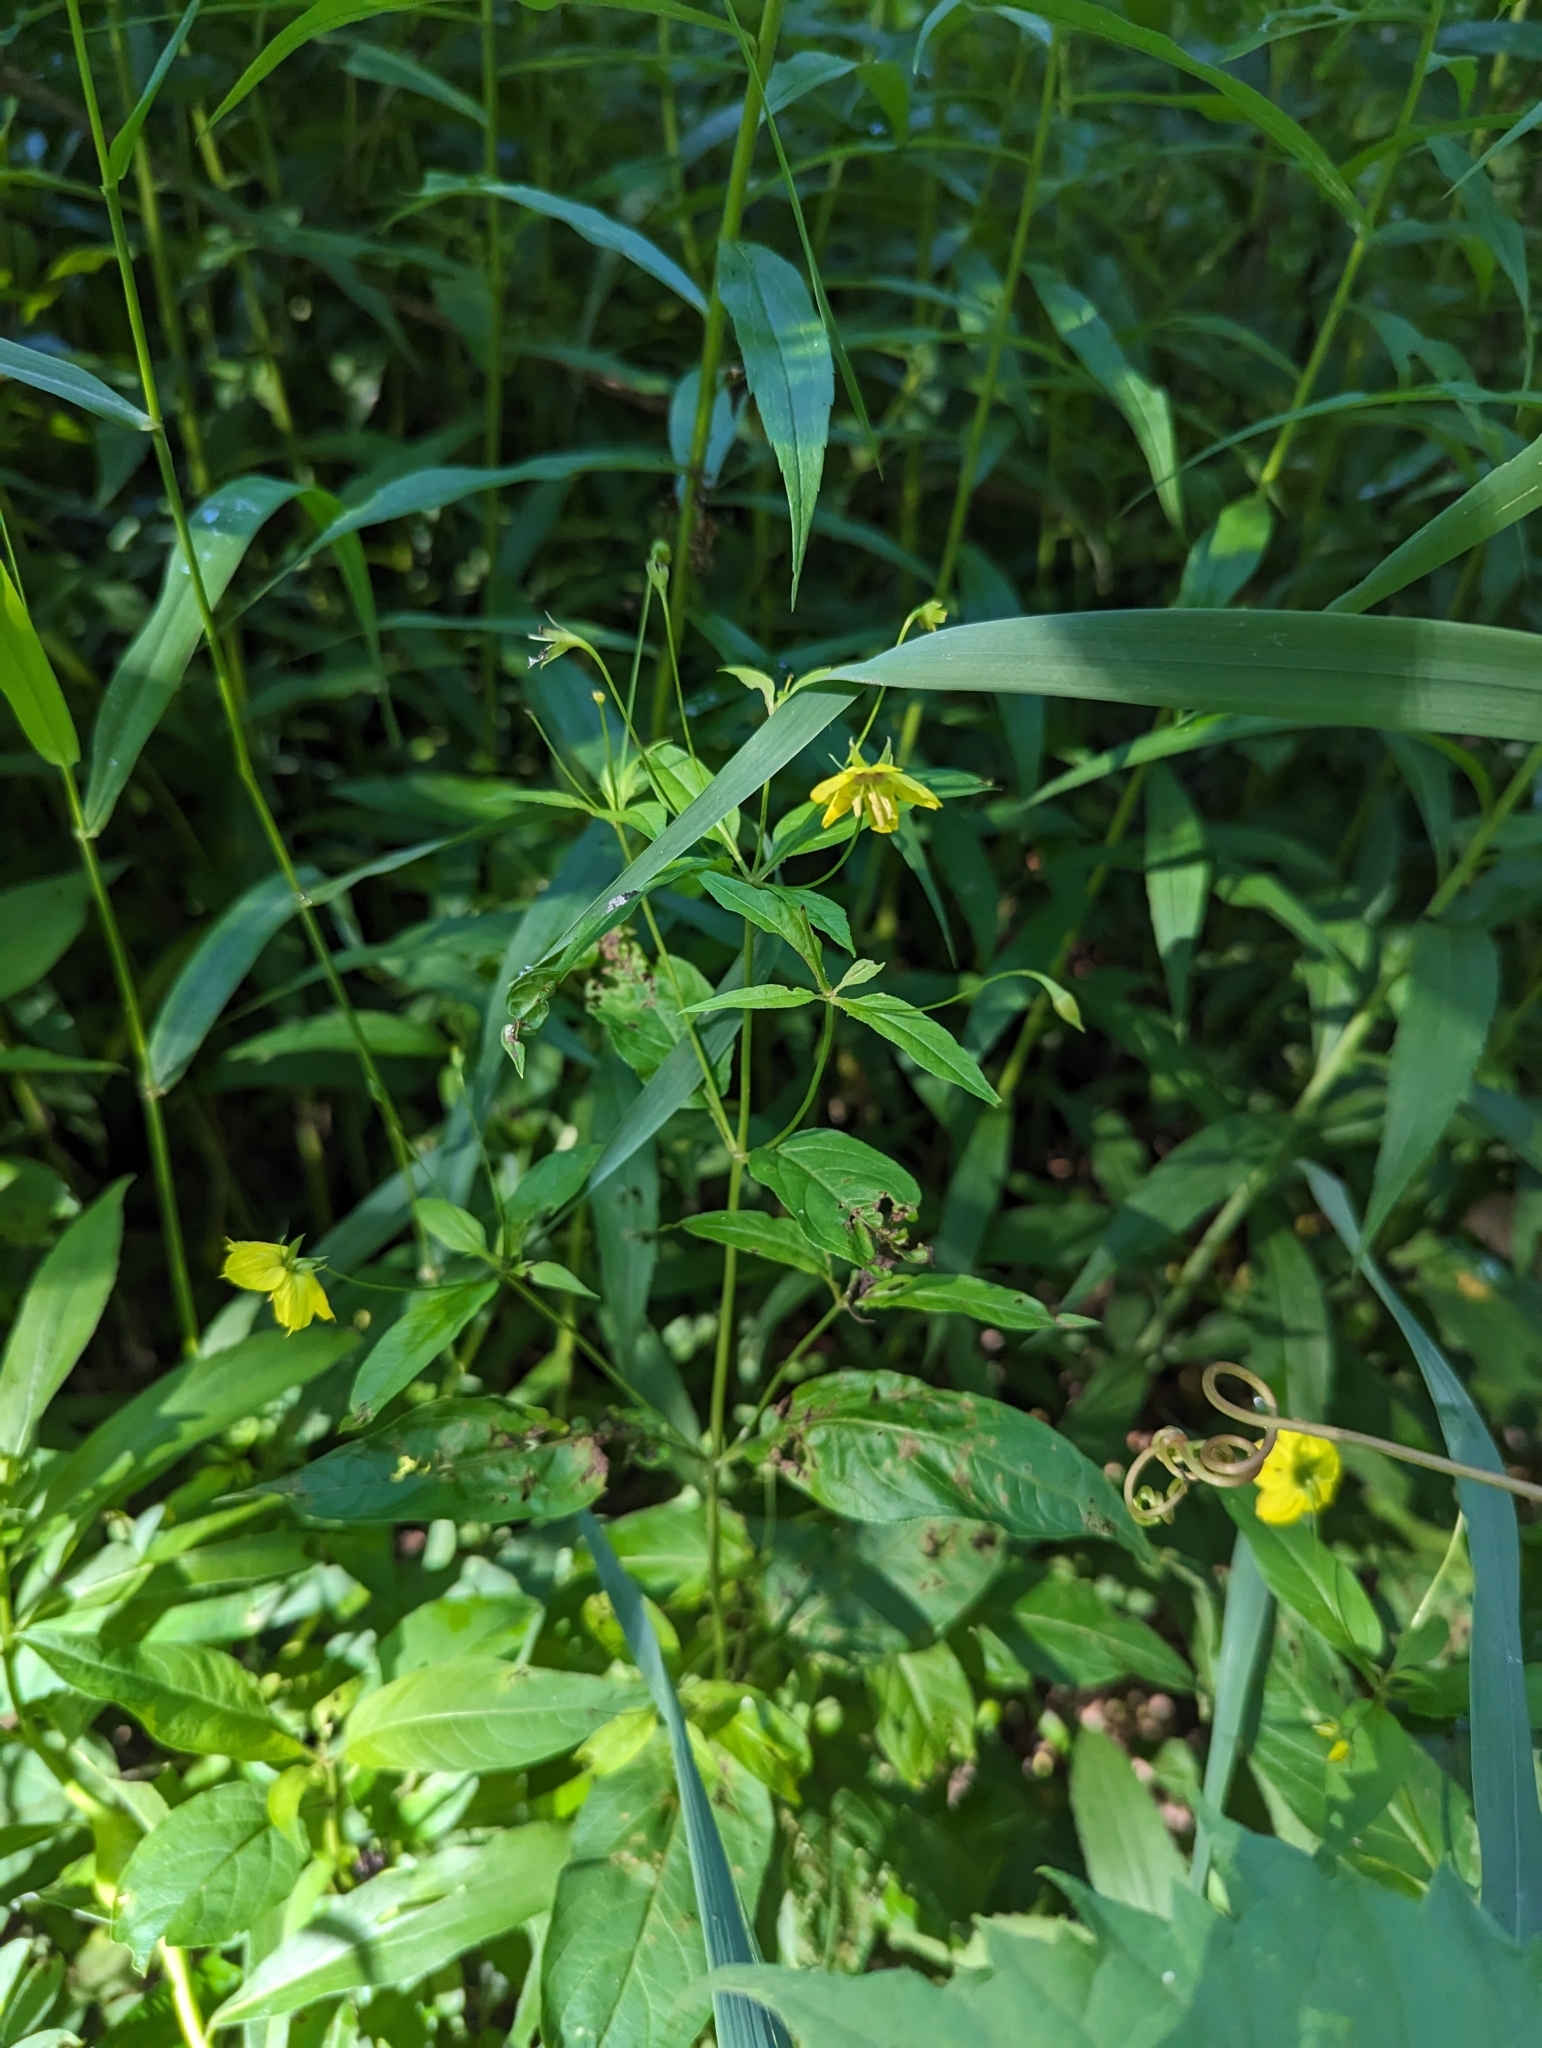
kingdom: Plantae
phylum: Tracheophyta
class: Magnoliopsida
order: Ericales
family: Primulaceae
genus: Lysimachia
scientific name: Lysimachia ciliata
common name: Fringed loosestrife
